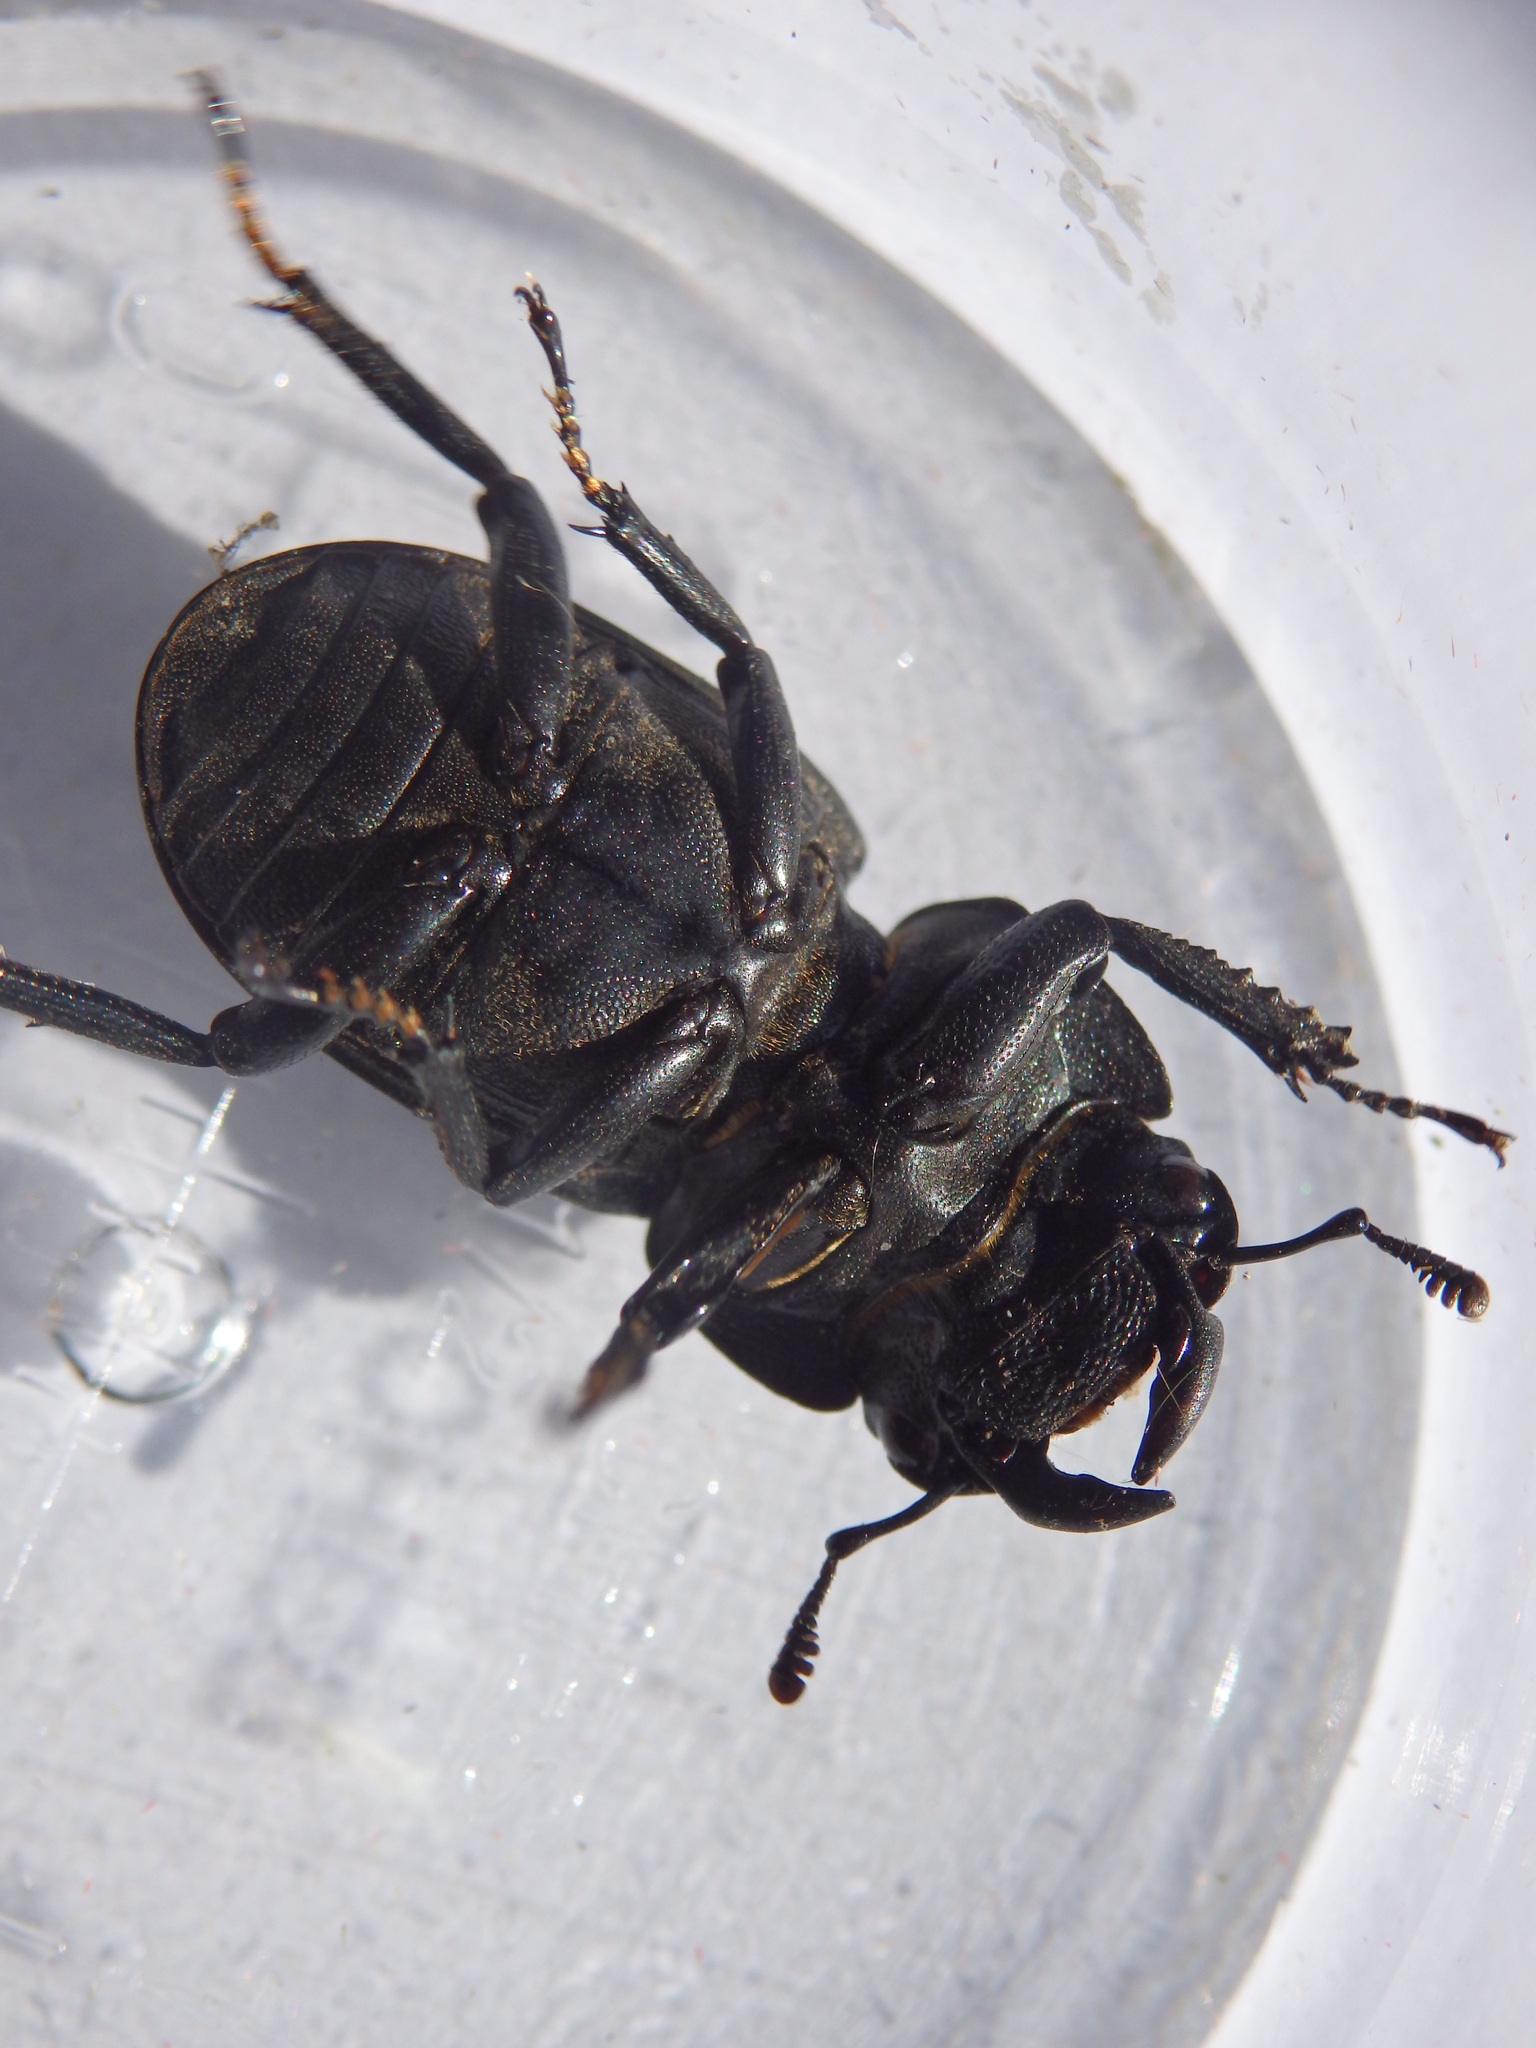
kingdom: Animalia
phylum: Arthropoda
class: Insecta
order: Coleoptera
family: Lucanidae
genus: Dorcus
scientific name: Dorcus parallelipipedus
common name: Lesser stag beetle
